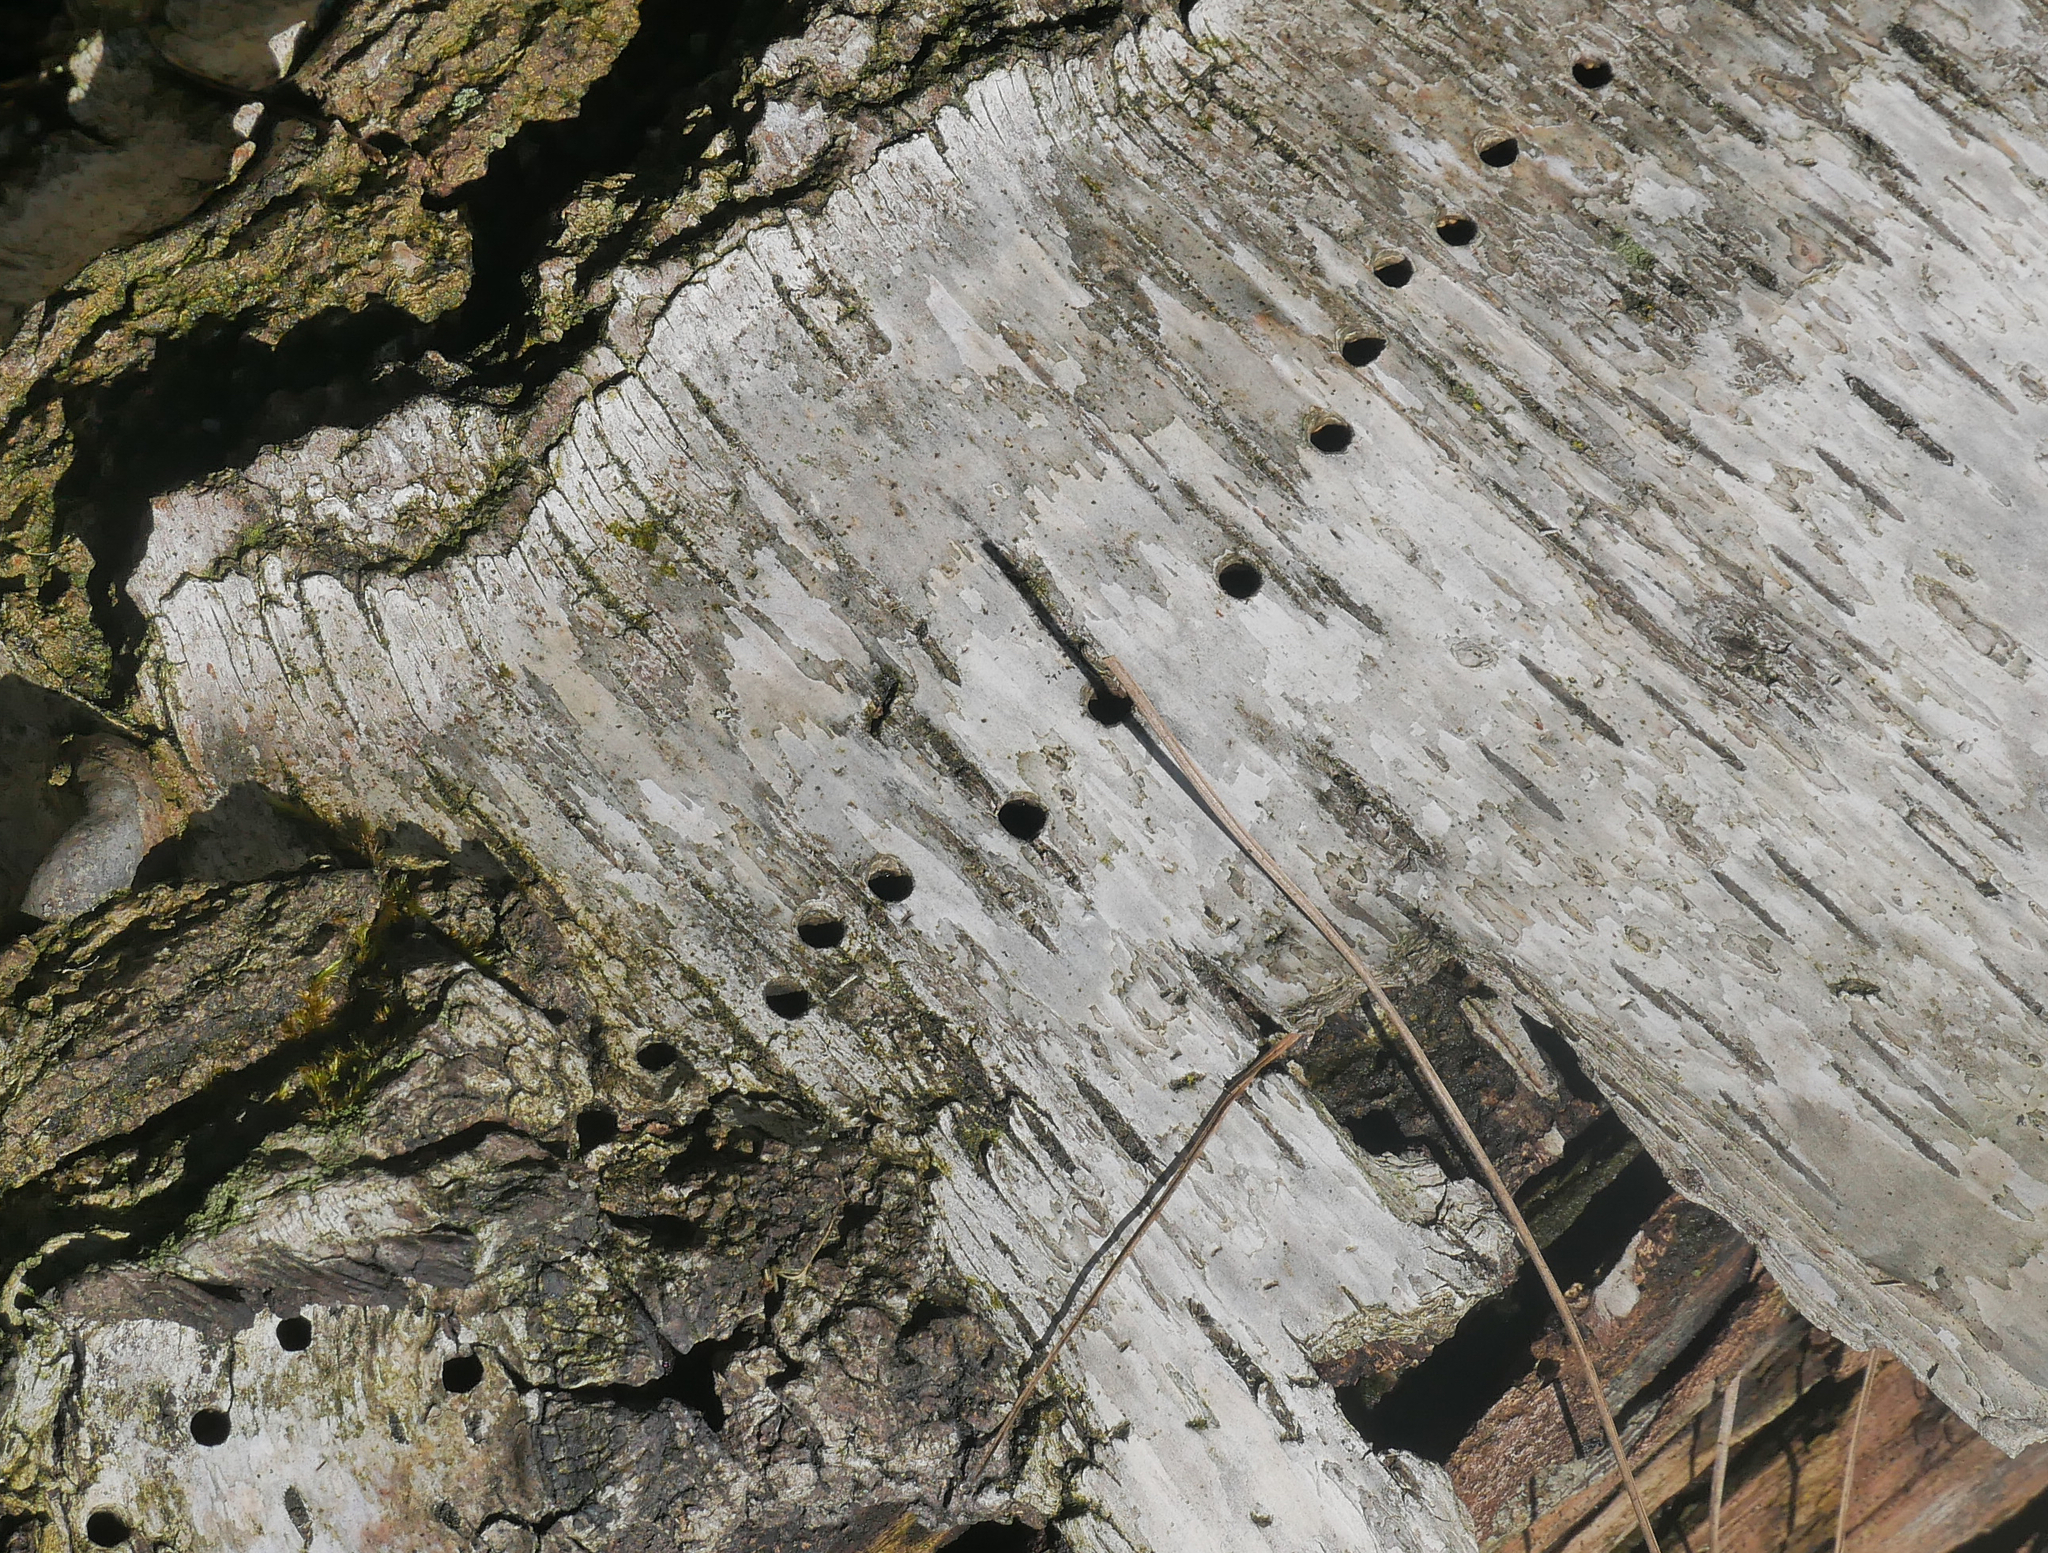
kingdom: Animalia
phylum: Arthropoda
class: Insecta
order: Coleoptera
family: Curculionidae
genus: Scolytus
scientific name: Scolytus ratzeburgii
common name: Birch bark beetle
